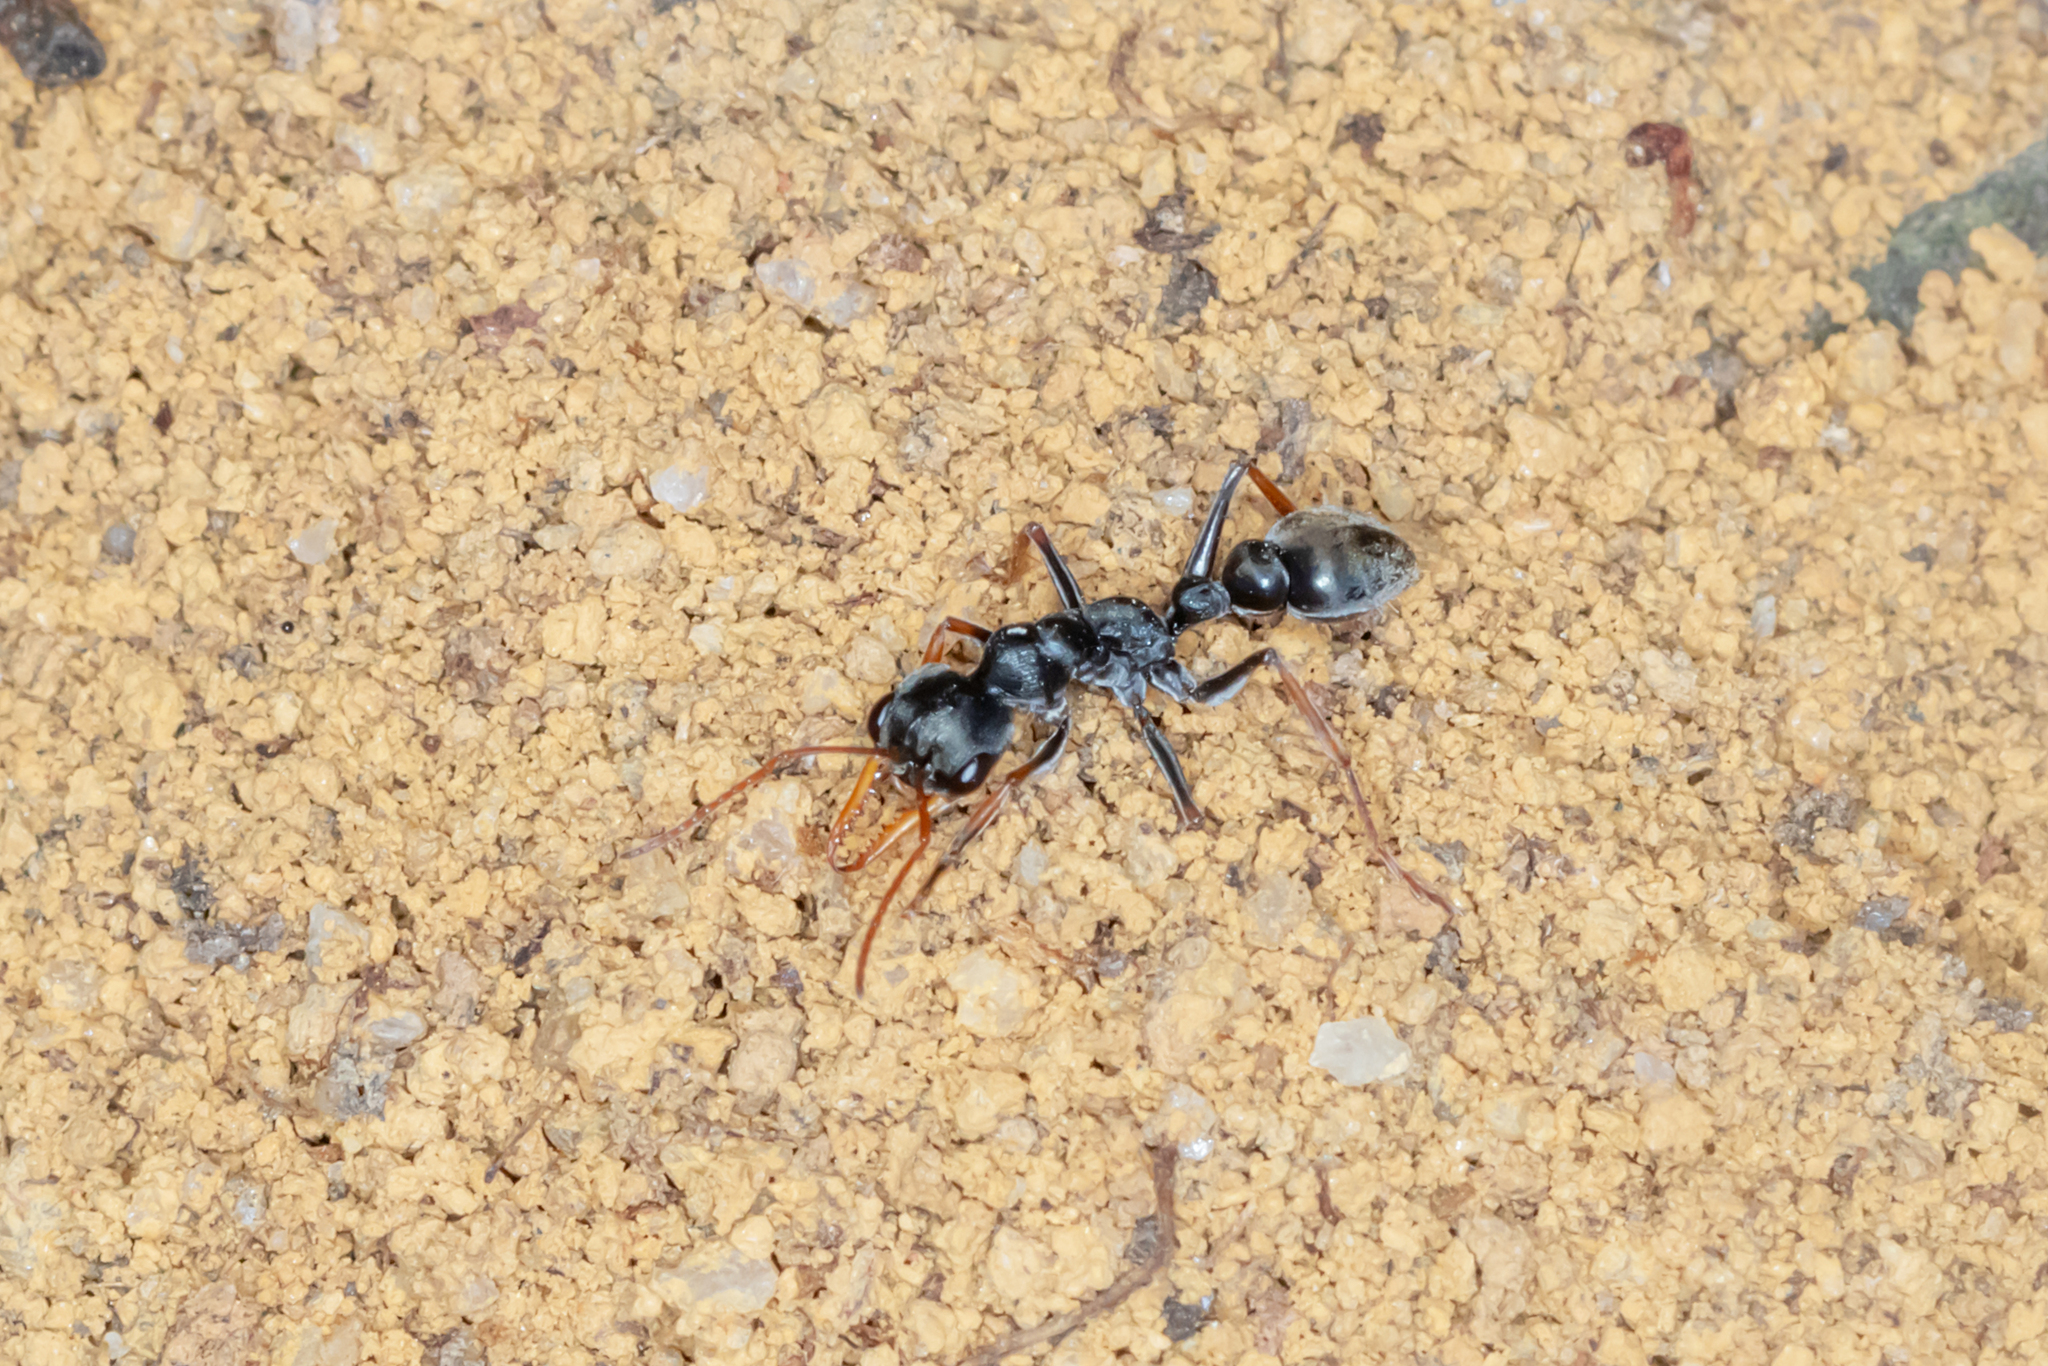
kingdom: Animalia
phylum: Arthropoda
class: Insecta
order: Hymenoptera
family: Formicidae
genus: Myrmecia
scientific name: Myrmecia pilosula
